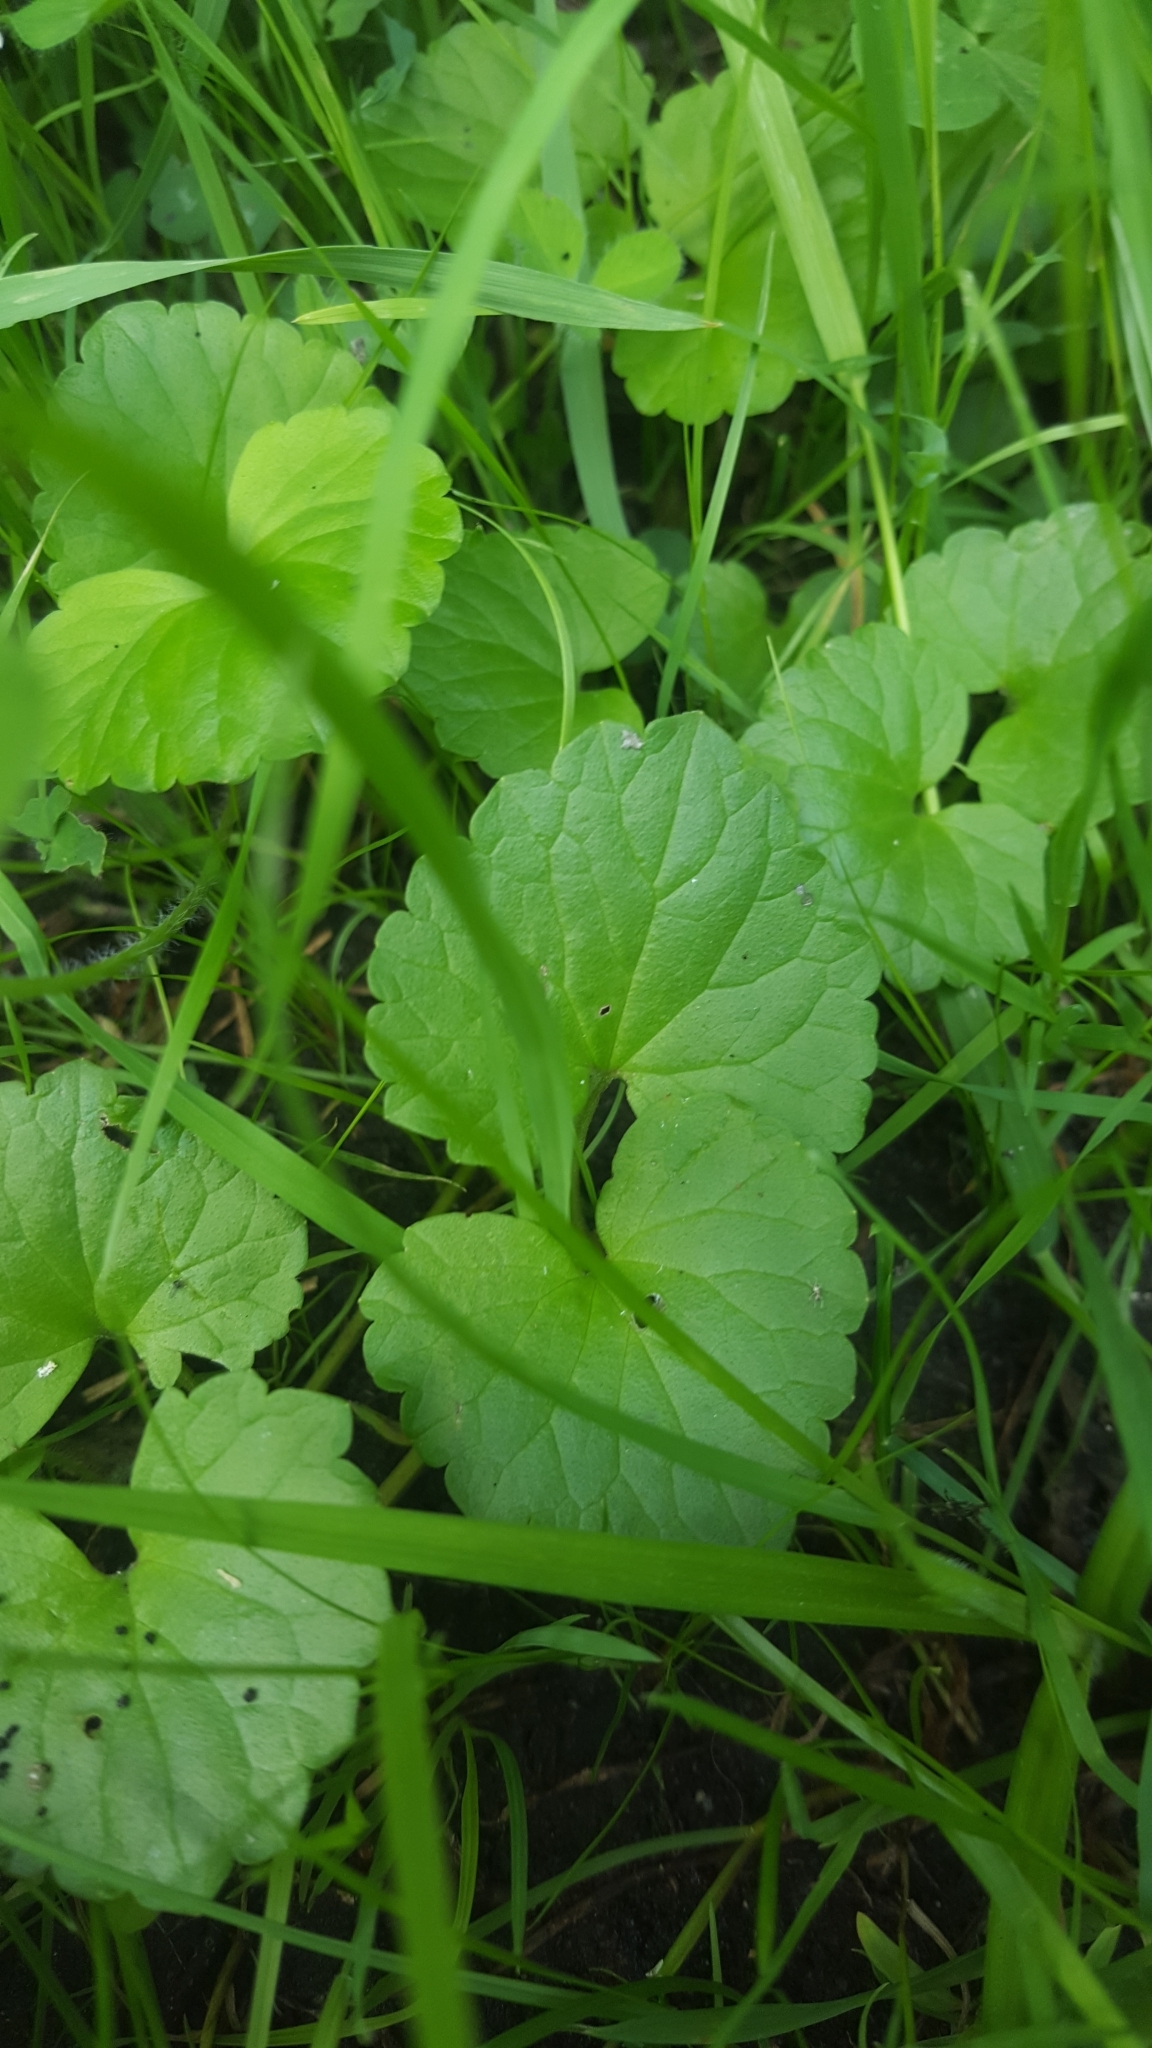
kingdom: Plantae
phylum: Tracheophyta
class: Magnoliopsida
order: Lamiales
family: Lamiaceae
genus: Glechoma
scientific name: Glechoma hederacea
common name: Ground ivy
